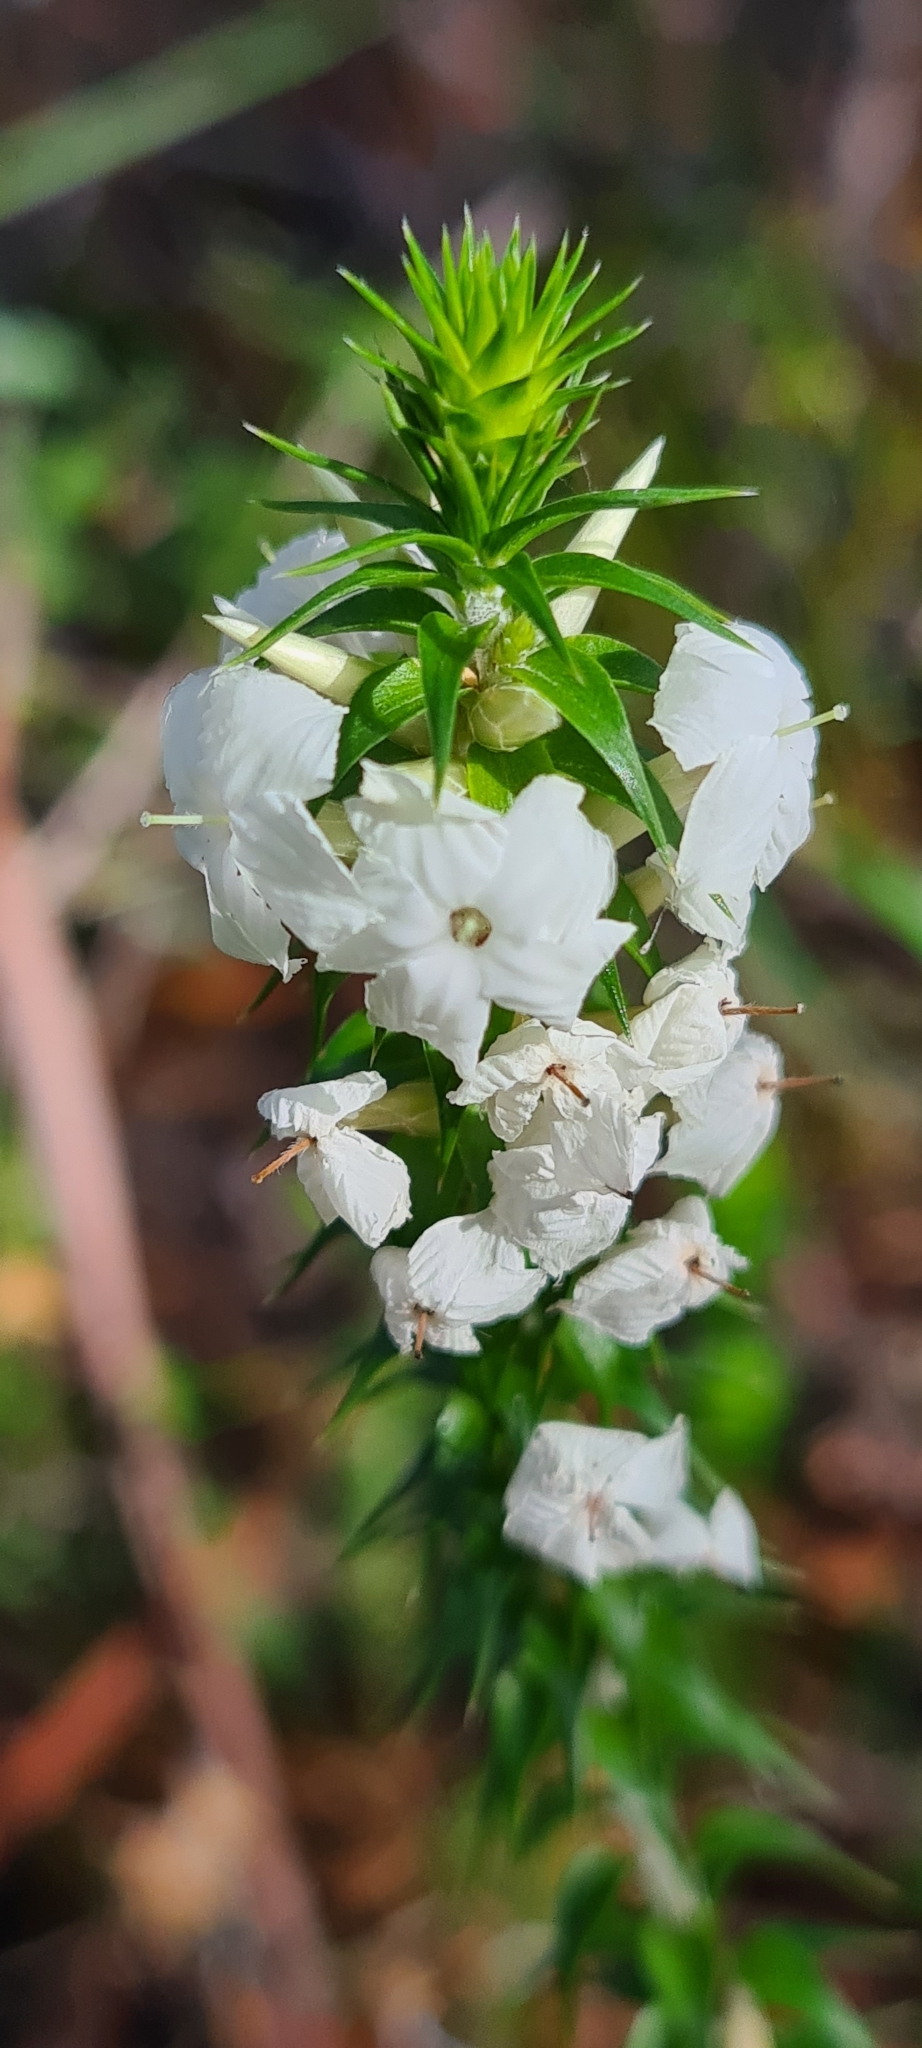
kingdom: Plantae
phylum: Tracheophyta
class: Magnoliopsida
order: Ericales
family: Ericaceae
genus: Woollsia
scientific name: Woollsia pungens
